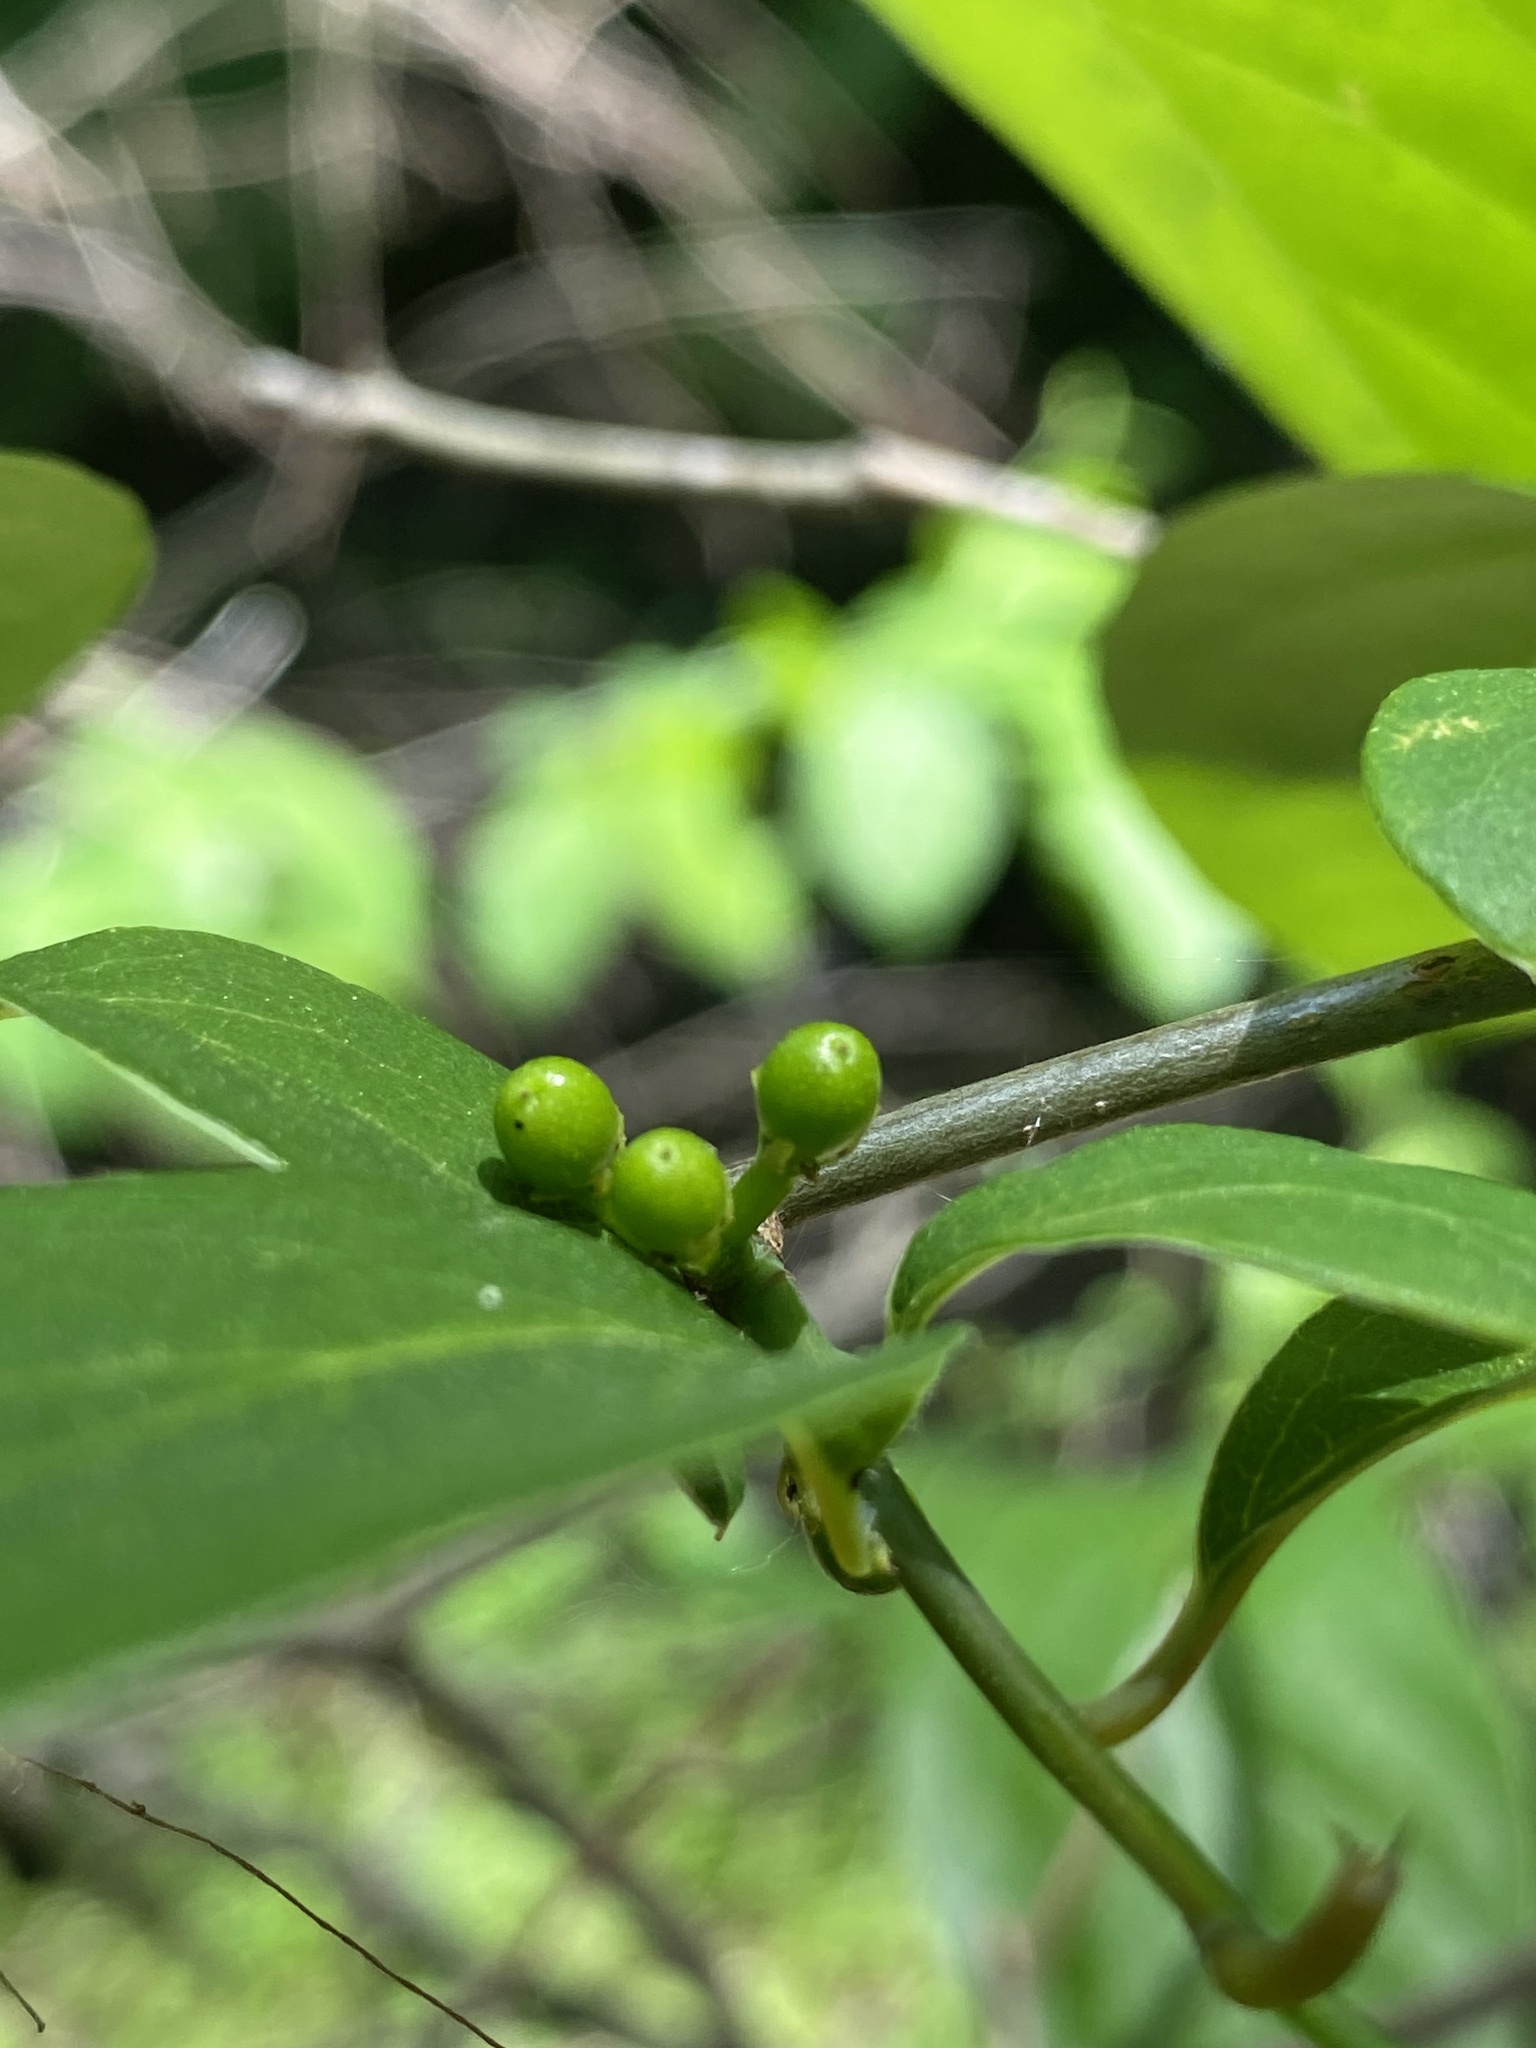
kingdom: Plantae
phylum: Tracheophyta
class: Magnoliopsida
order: Laurales
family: Lauraceae
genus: Lindera
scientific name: Lindera benzoin
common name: Spicebush
